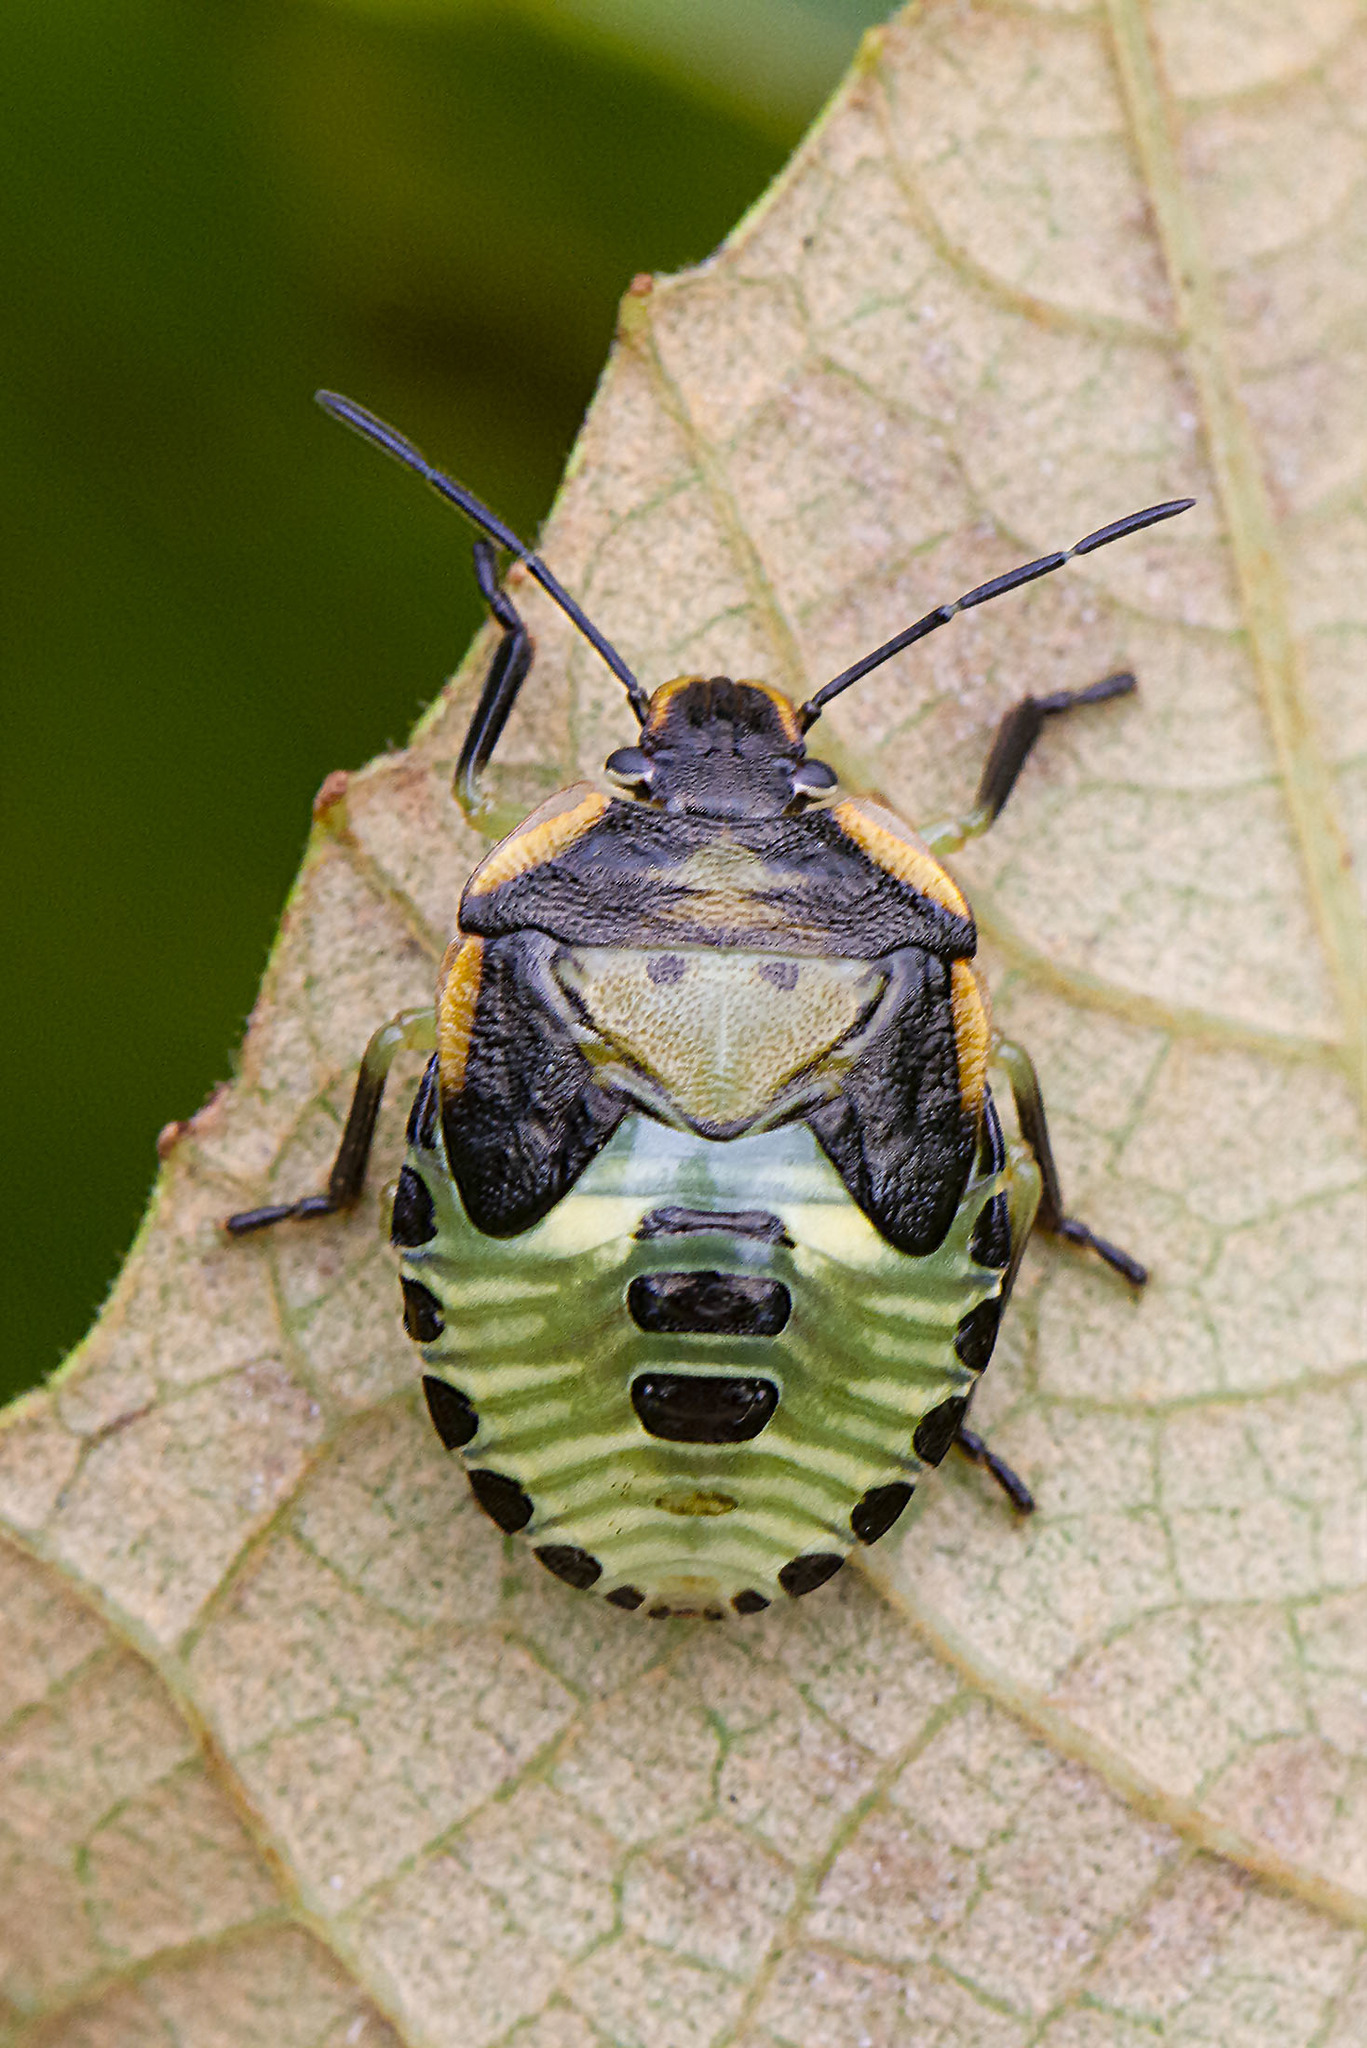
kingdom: Animalia
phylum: Arthropoda
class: Insecta
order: Hemiptera
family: Pentatomidae
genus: Chinavia
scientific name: Chinavia hilaris
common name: Green stink bug
